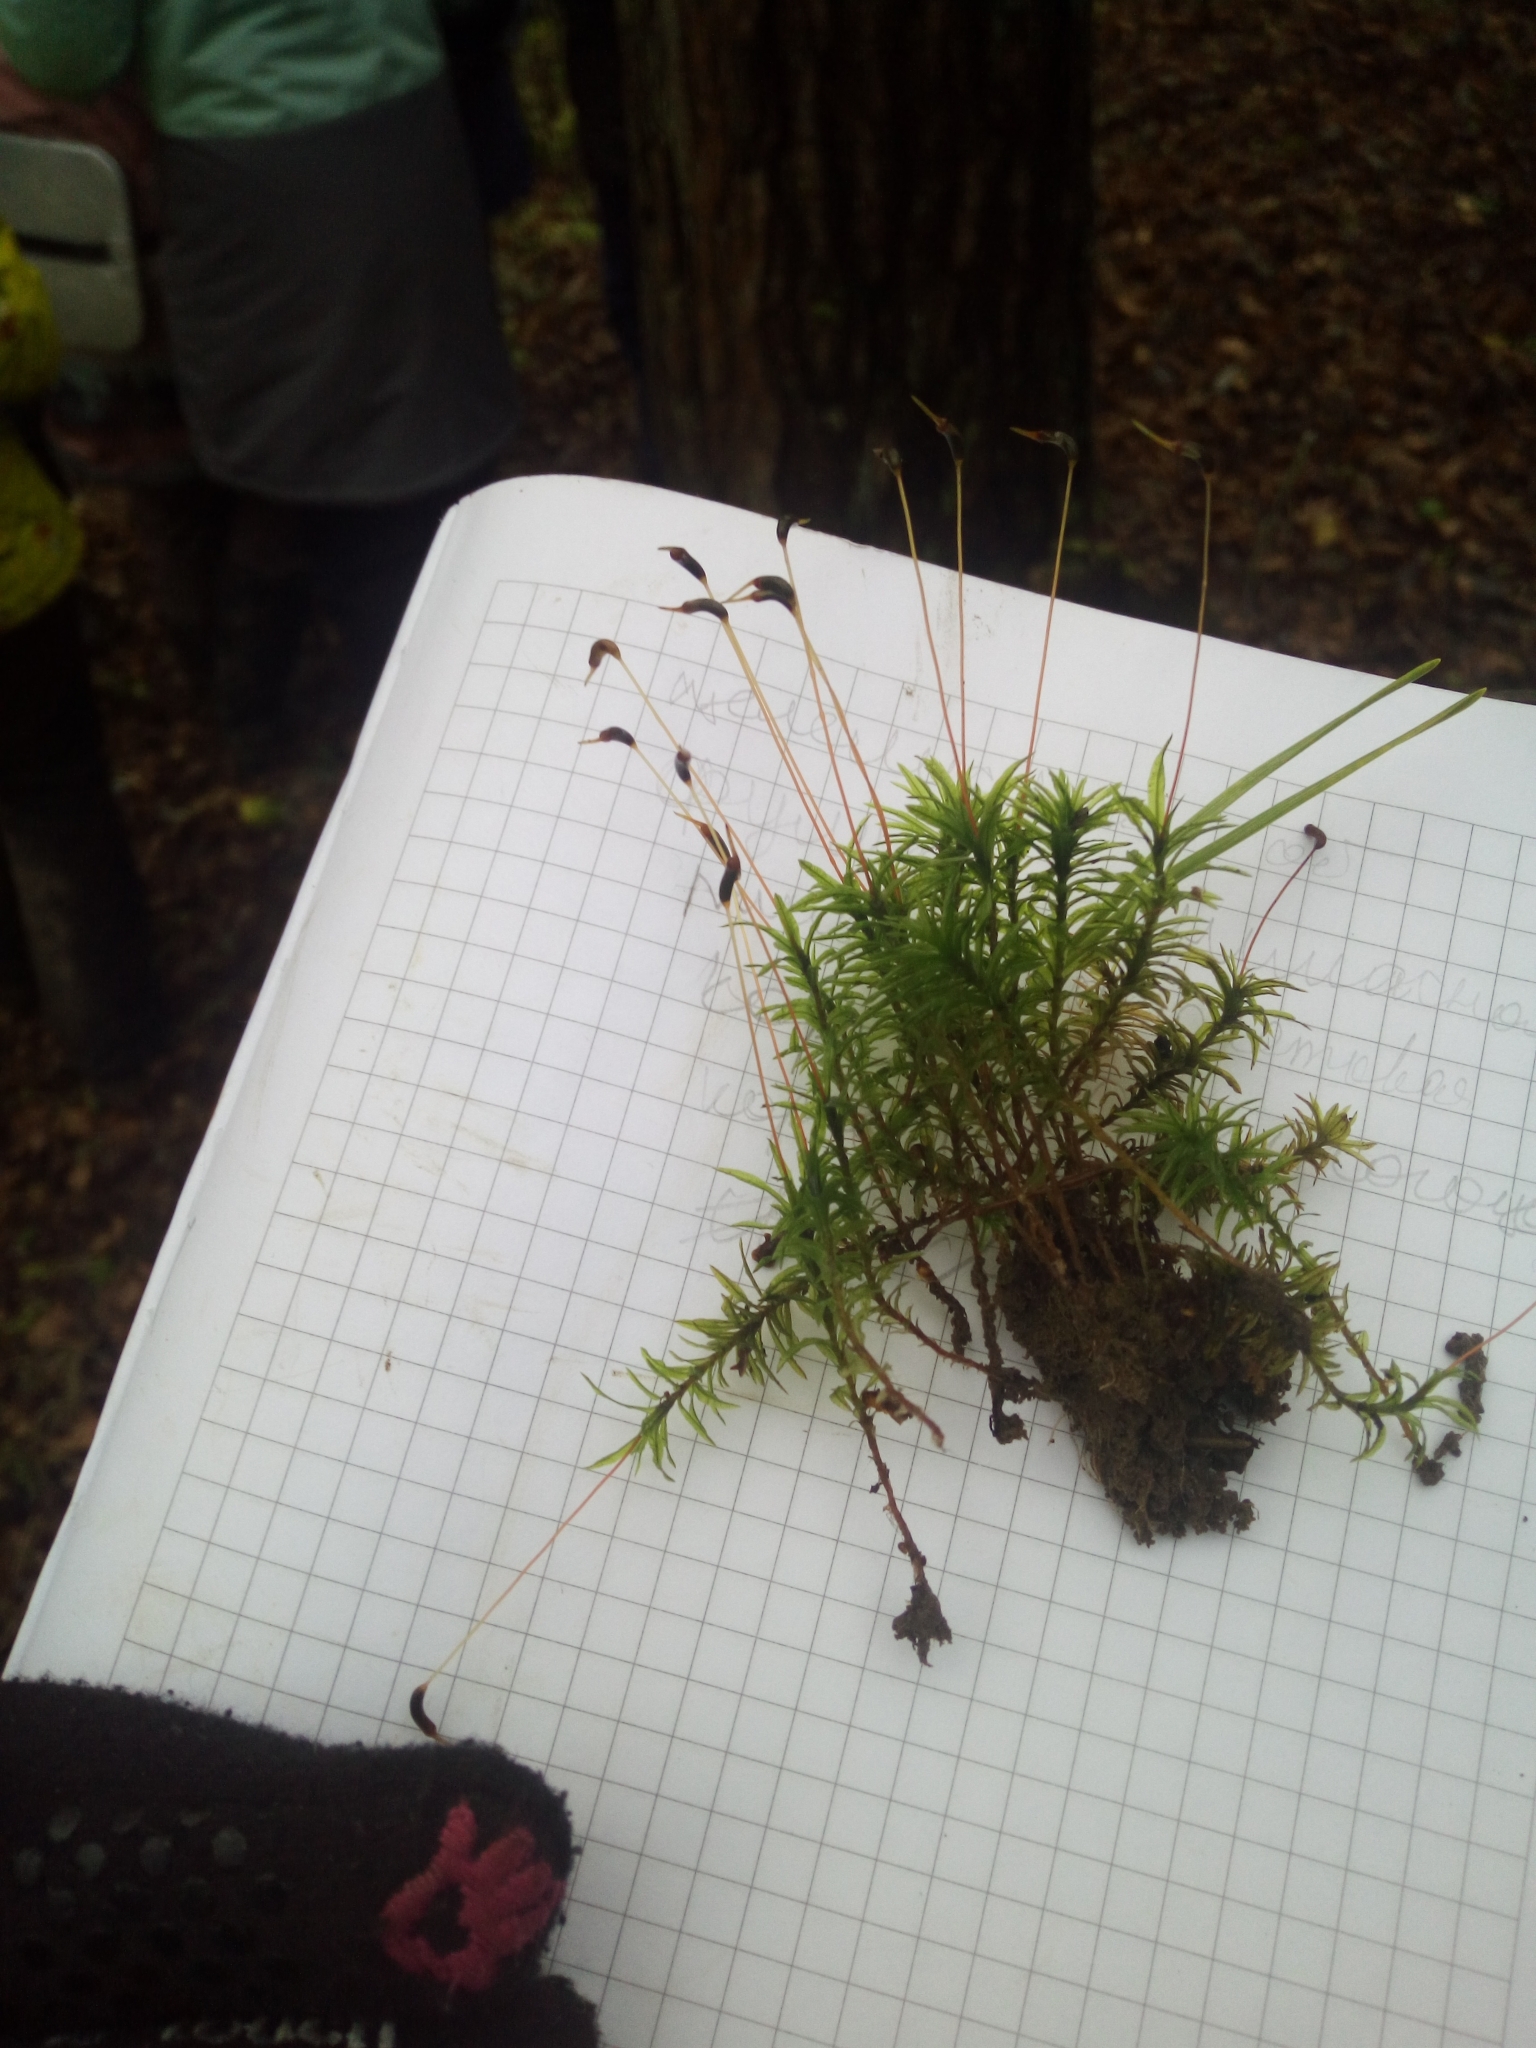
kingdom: Plantae
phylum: Bryophyta
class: Polytrichopsida
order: Polytrichales
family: Polytrichaceae
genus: Atrichum
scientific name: Atrichum undulatum
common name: Common smoothcap
